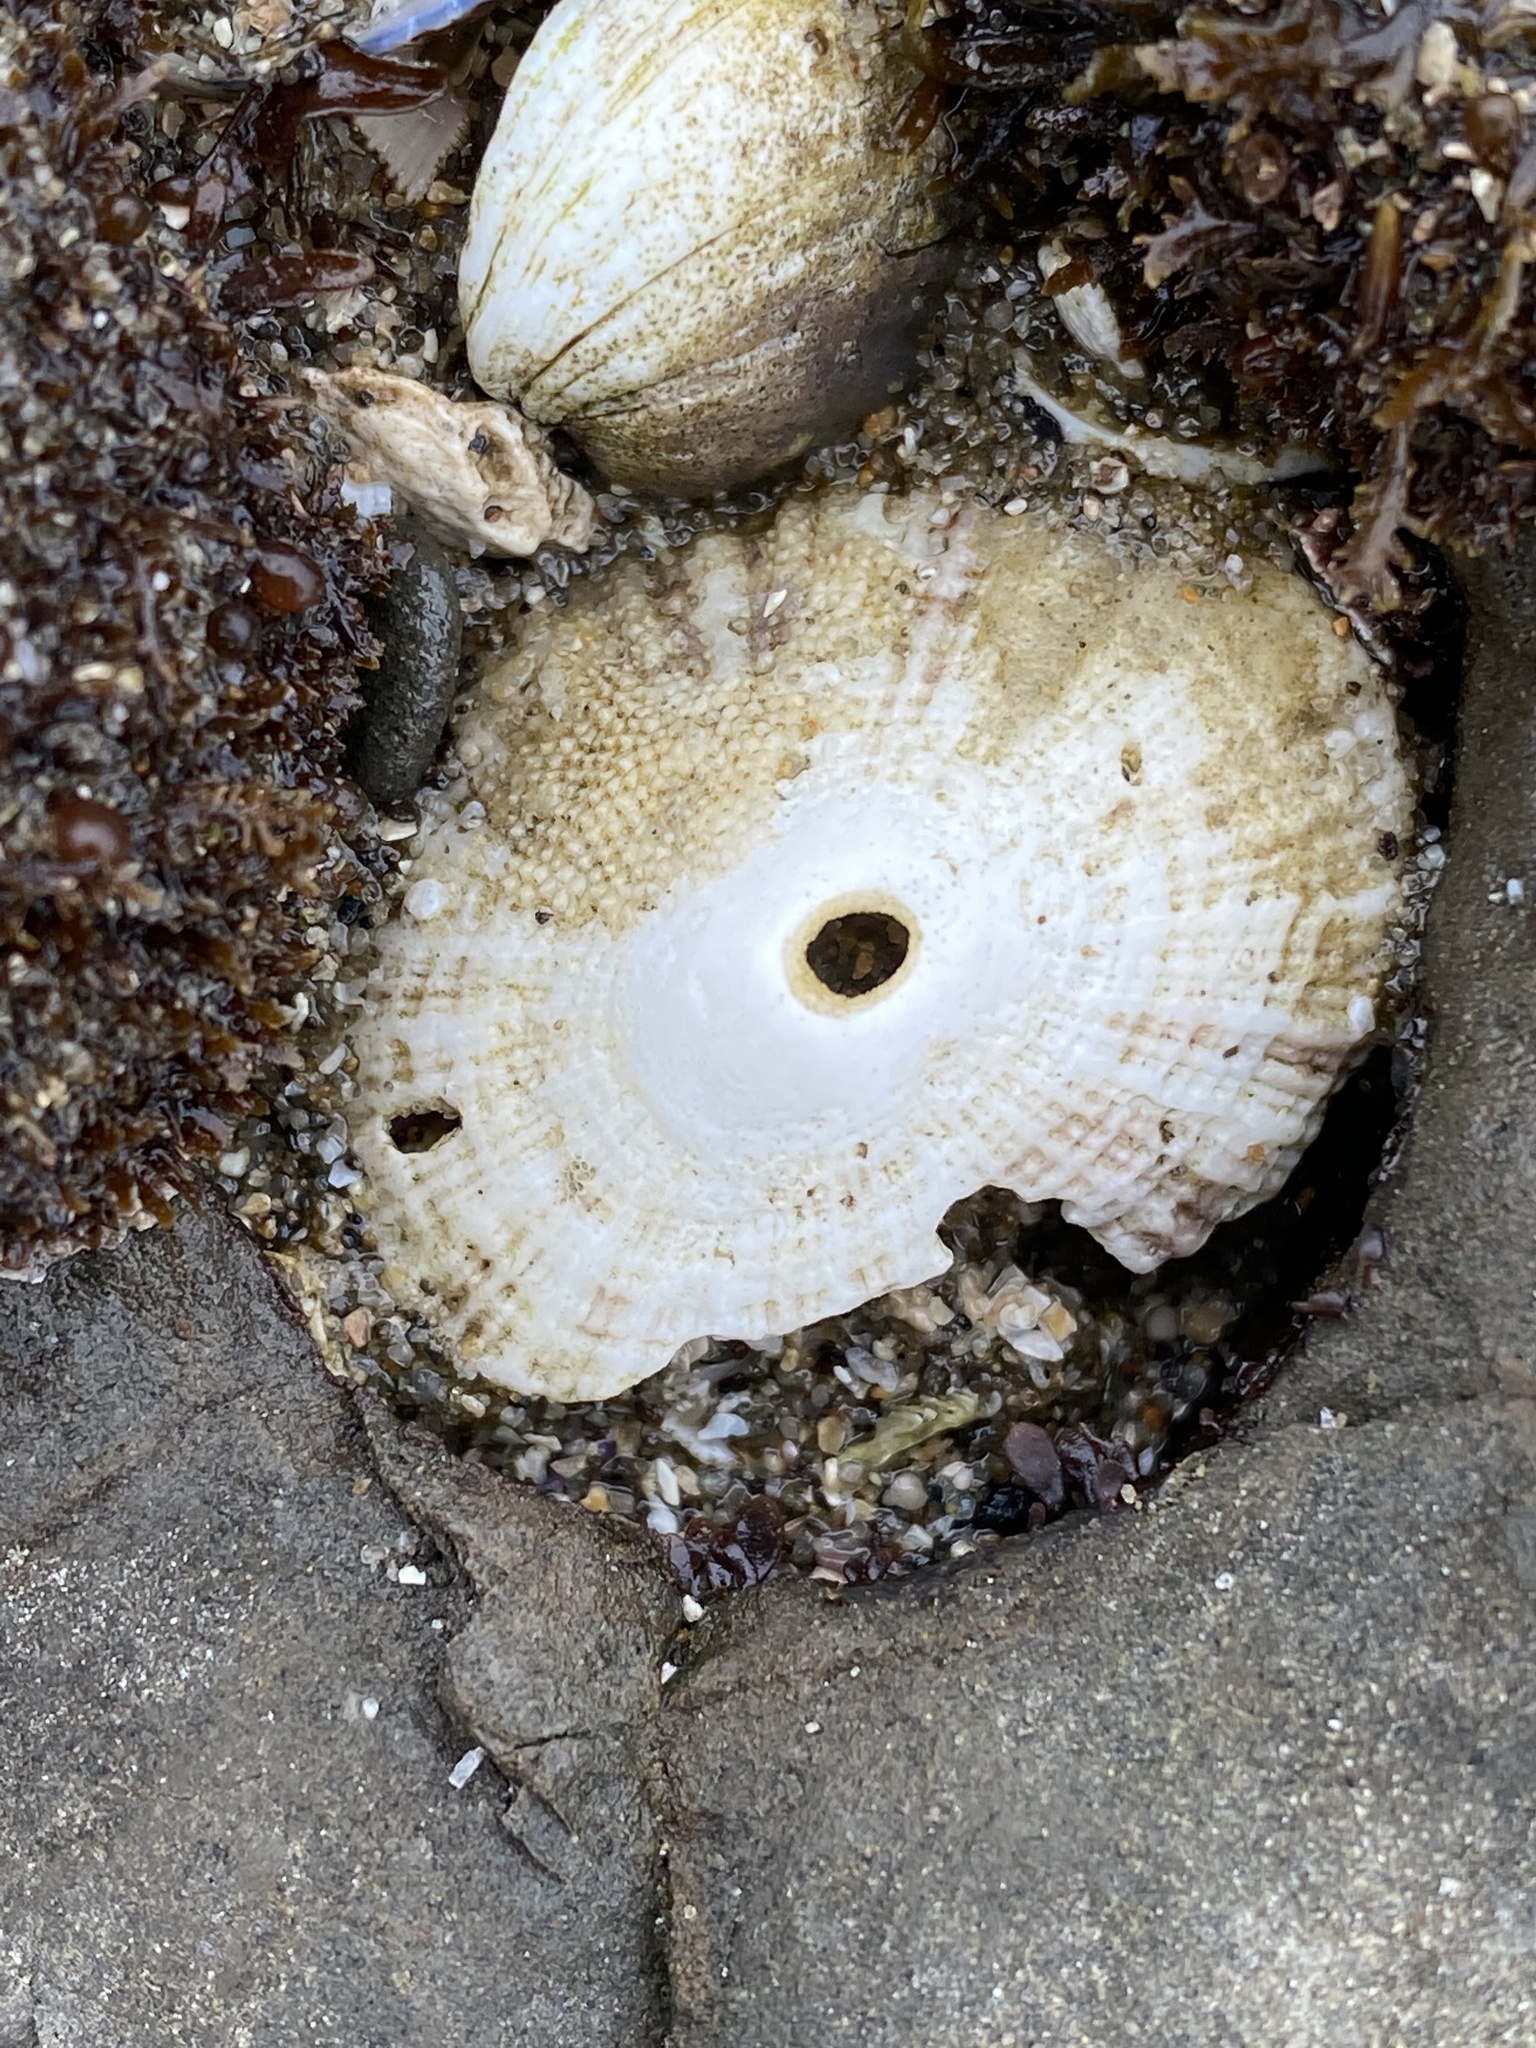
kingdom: Animalia
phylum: Mollusca
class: Gastropoda
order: Lepetellida
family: Fissurellidae
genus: Diodora
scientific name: Diodora aspera
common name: Rough keyhole limpet
